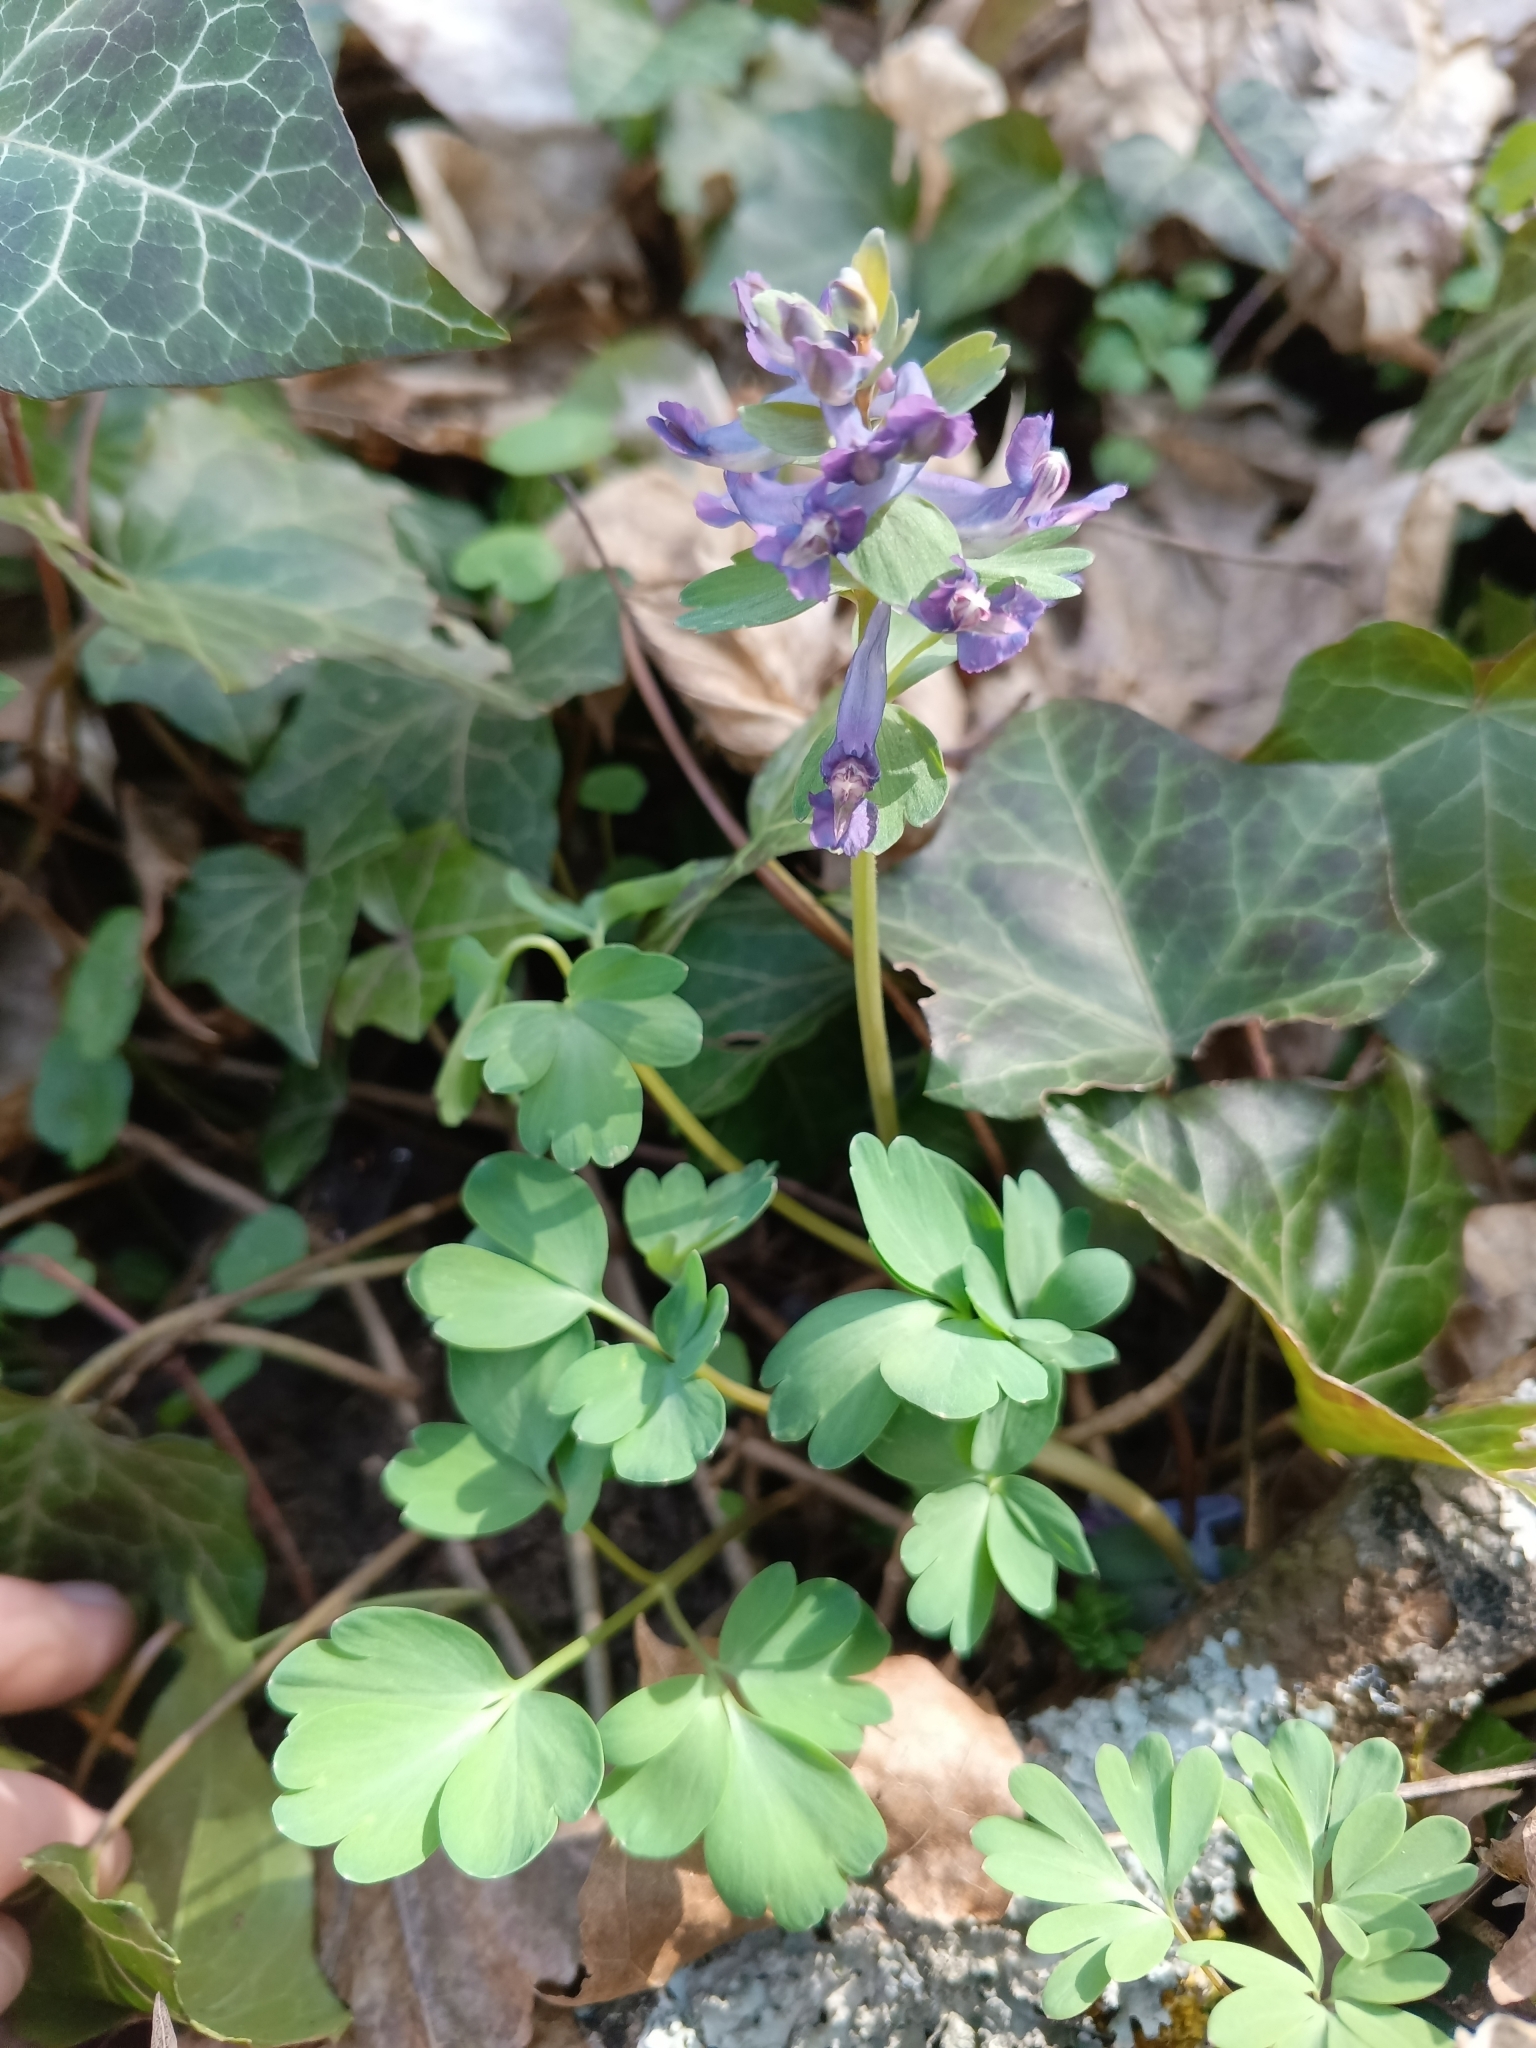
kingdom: Plantae
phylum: Tracheophyta
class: Magnoliopsida
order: Ranunculales
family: Papaveraceae
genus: Corydalis
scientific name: Corydalis solida
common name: Bird-in-a-bush
